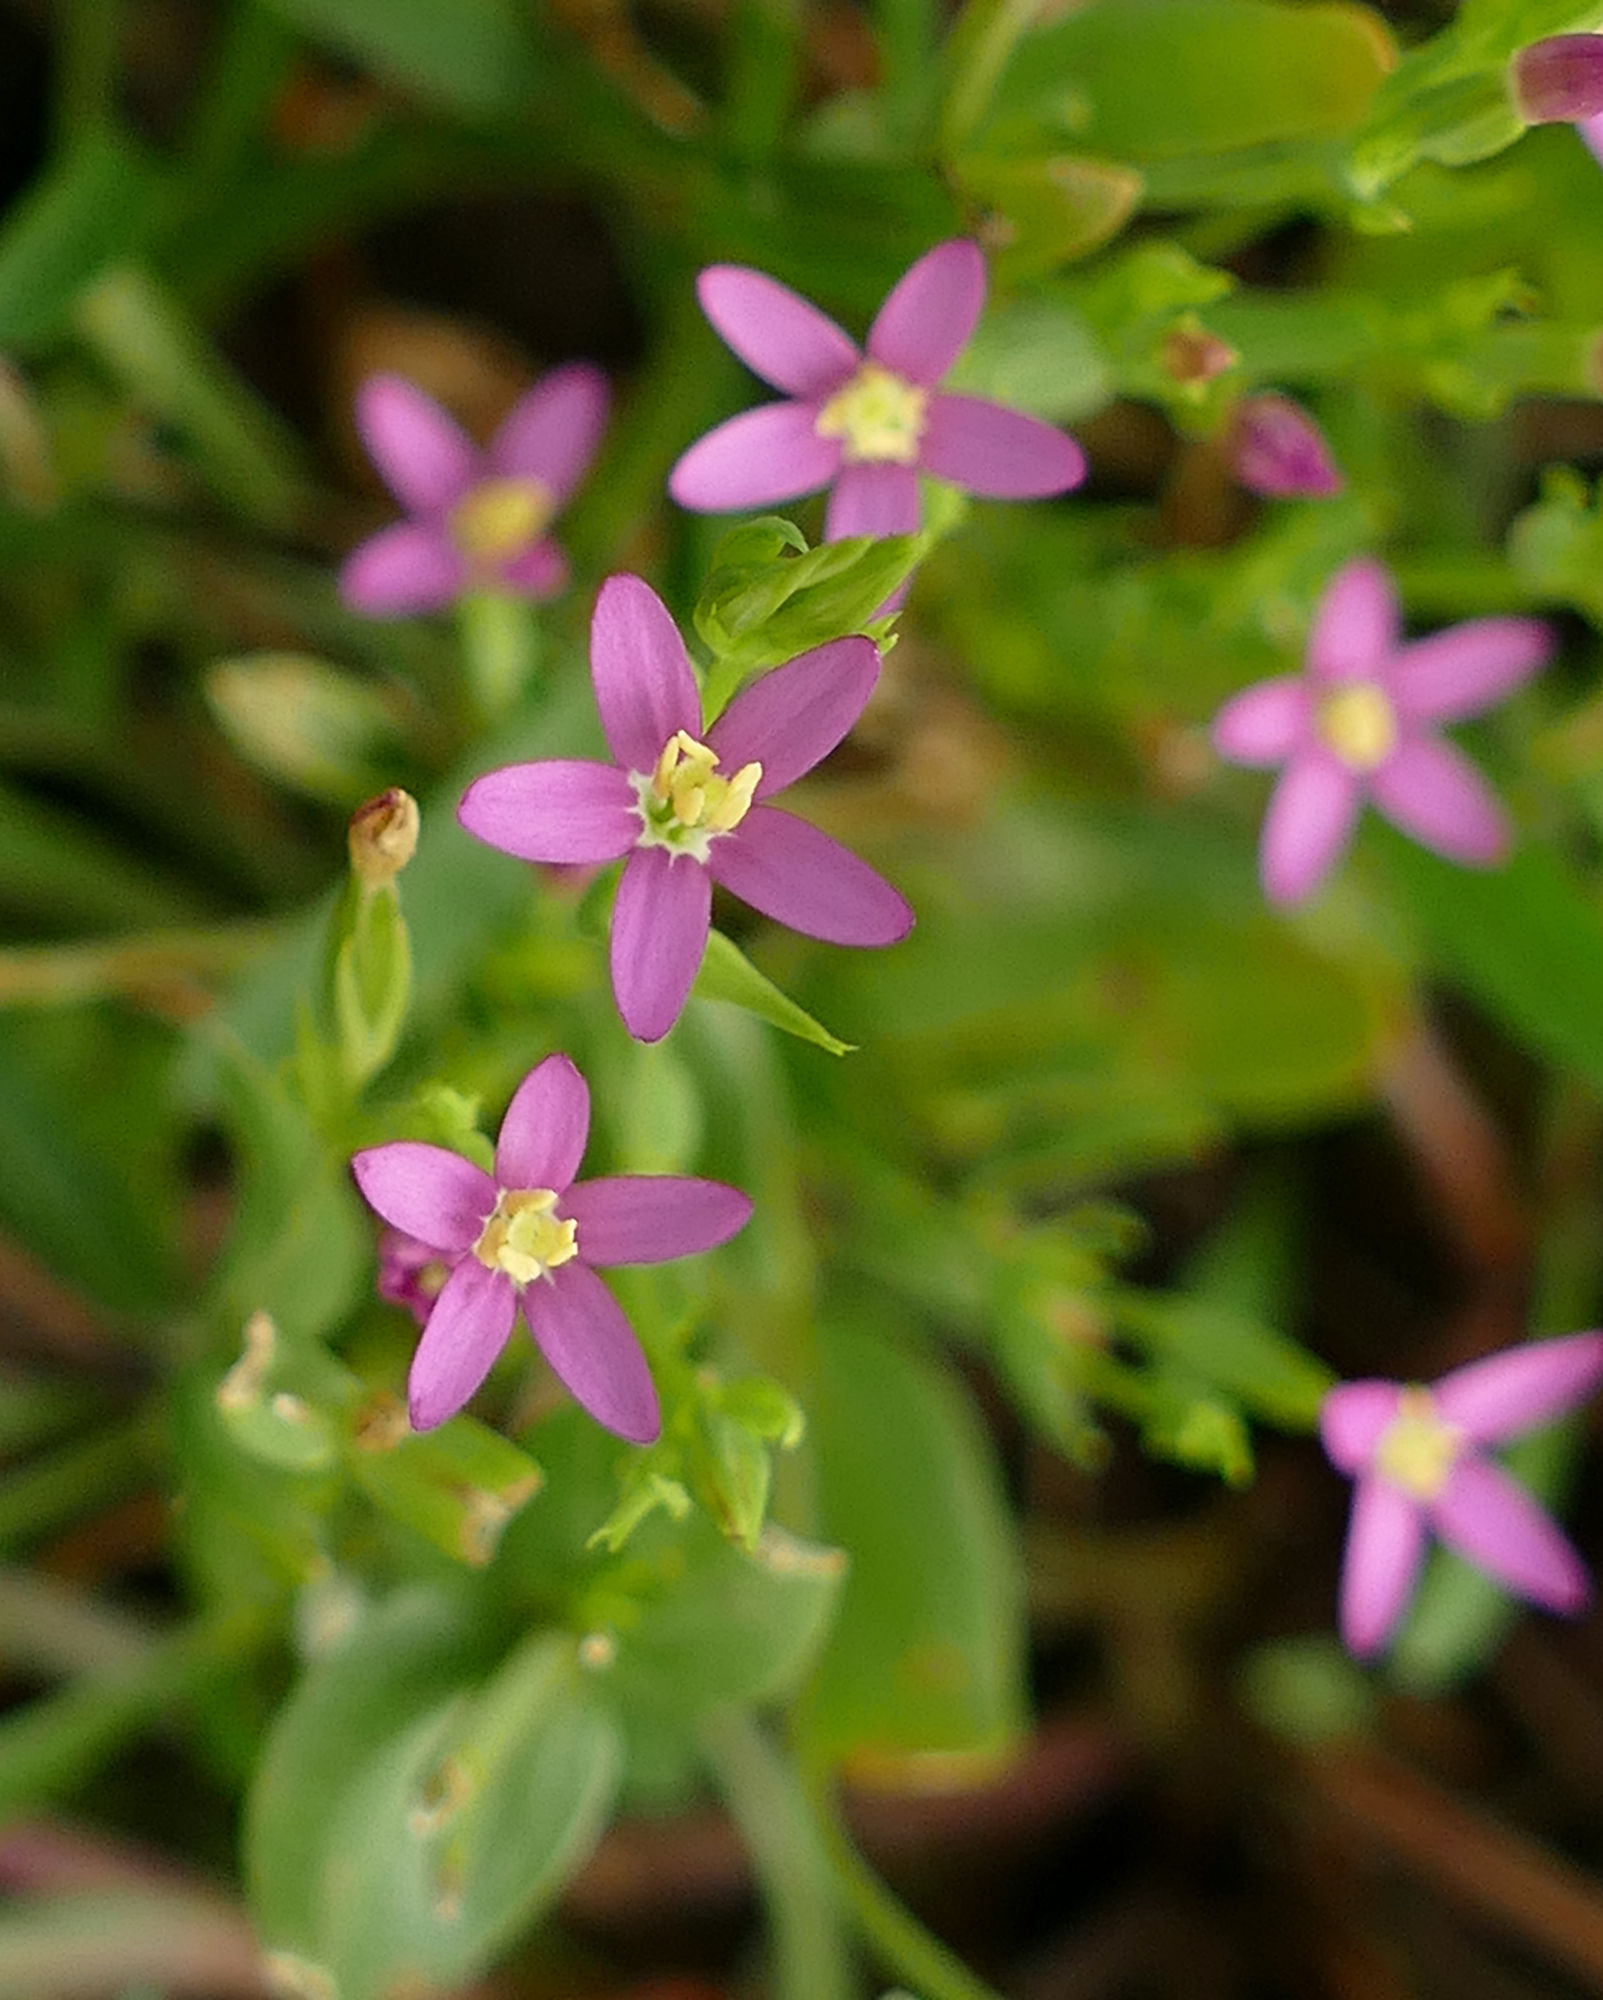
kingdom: Plantae
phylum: Tracheophyta
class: Magnoliopsida
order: Gentianales
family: Gentianaceae
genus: Centaurium
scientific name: Centaurium pulchellum
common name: Lesser centaury
